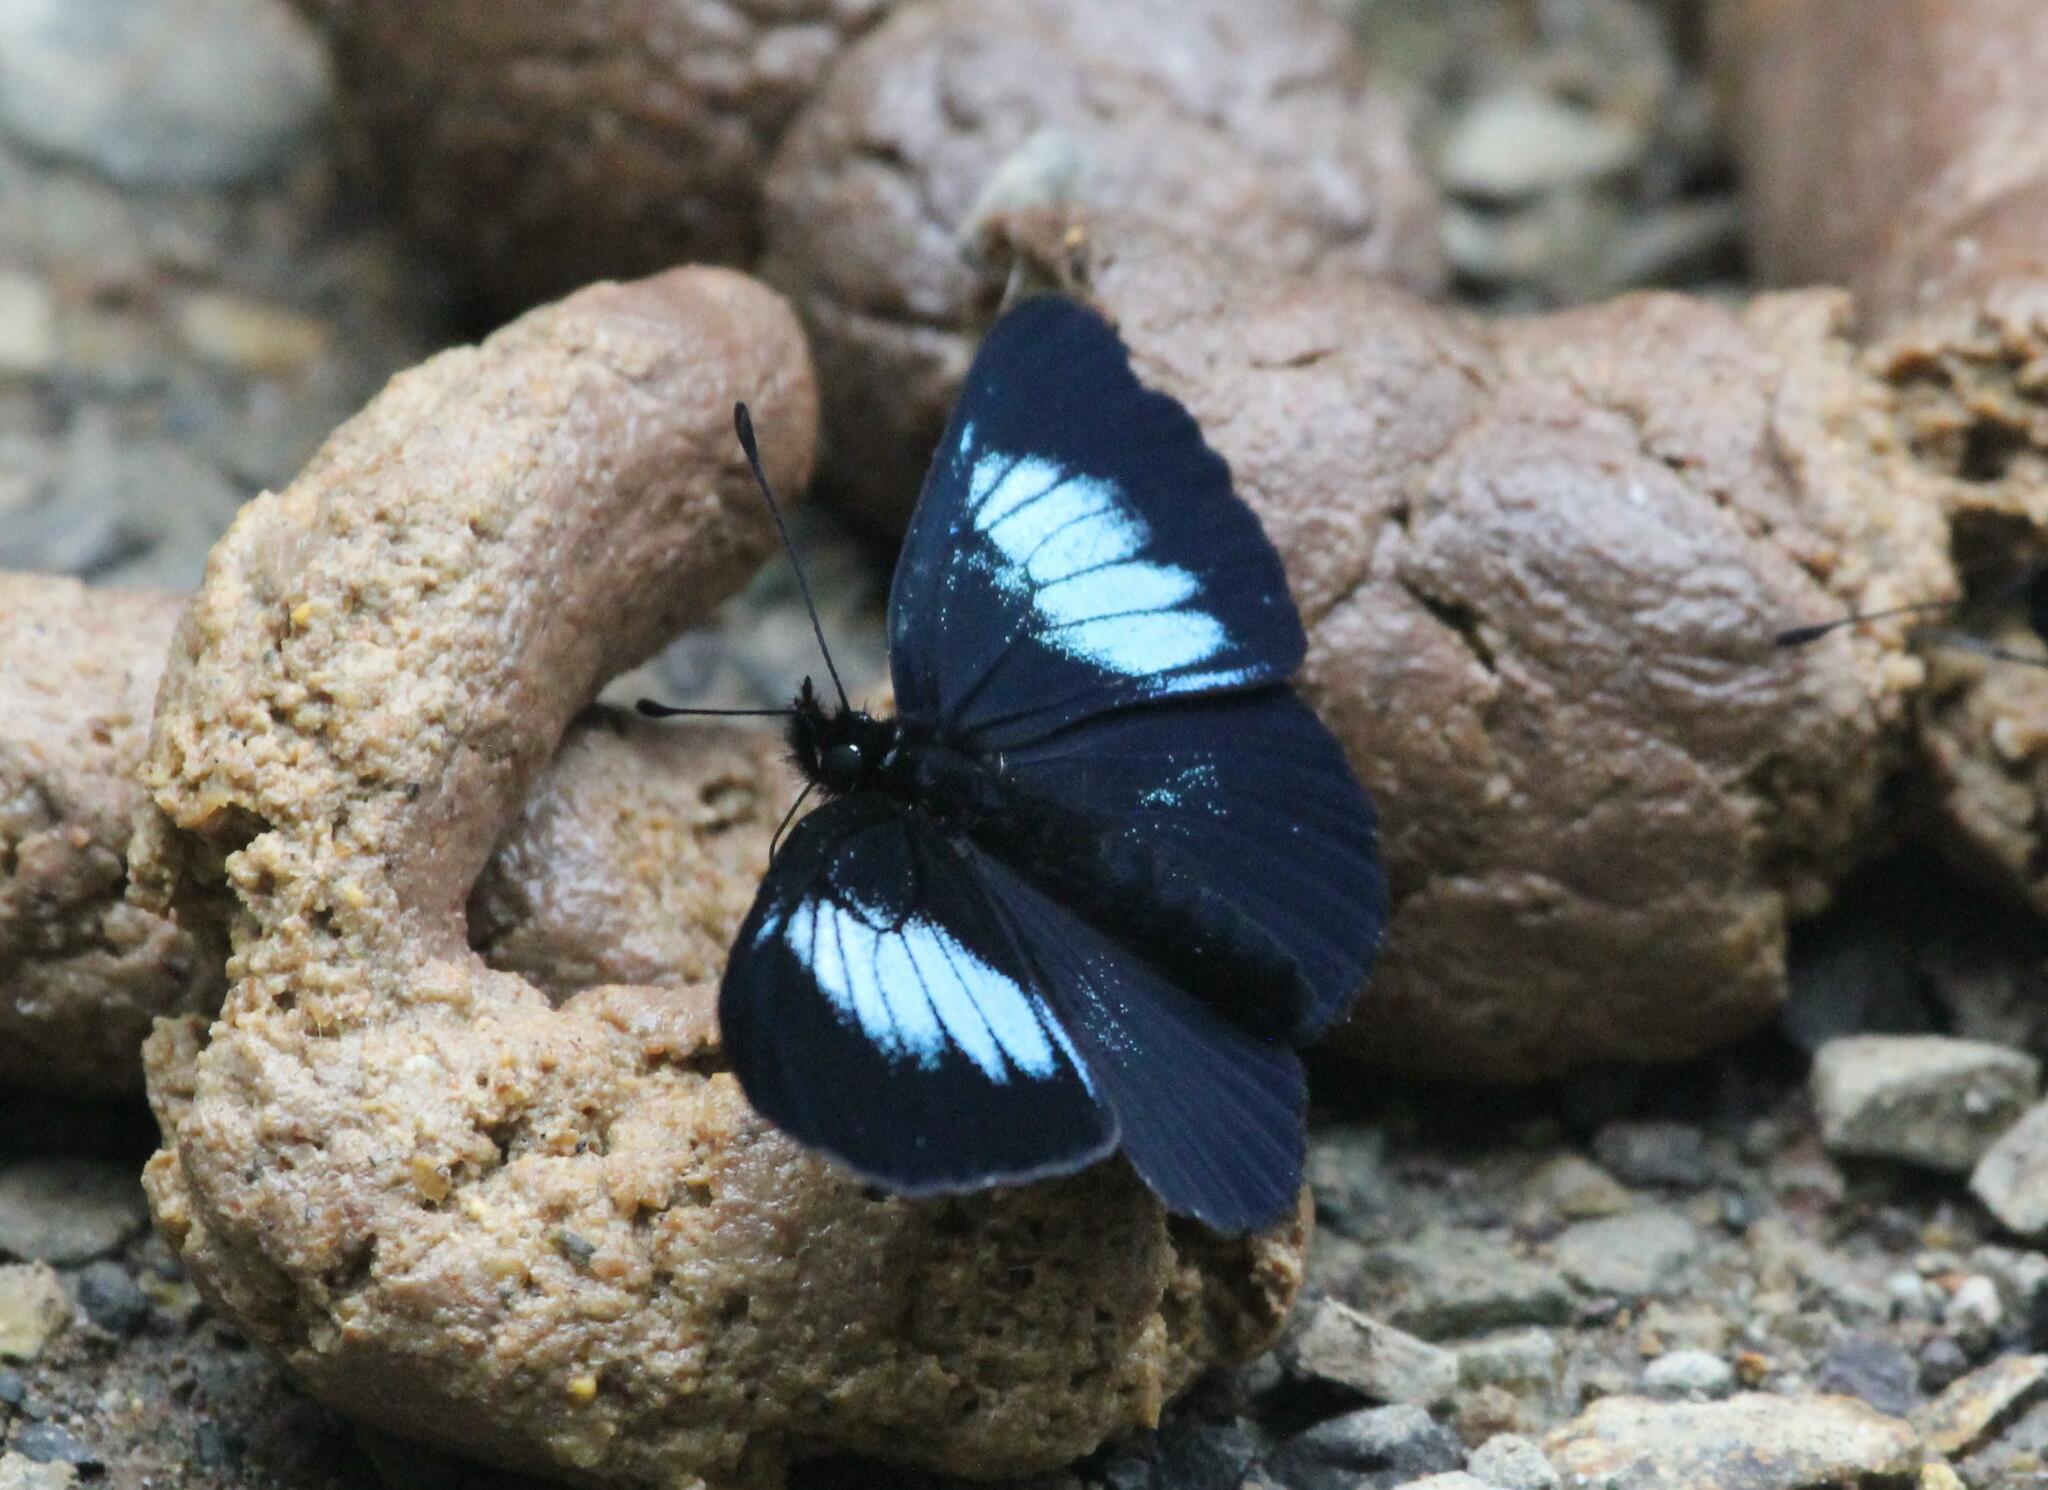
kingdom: Animalia
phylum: Arthropoda
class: Insecta
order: Lepidoptera
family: Nymphalidae
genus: Eresia
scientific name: Eresia levina
